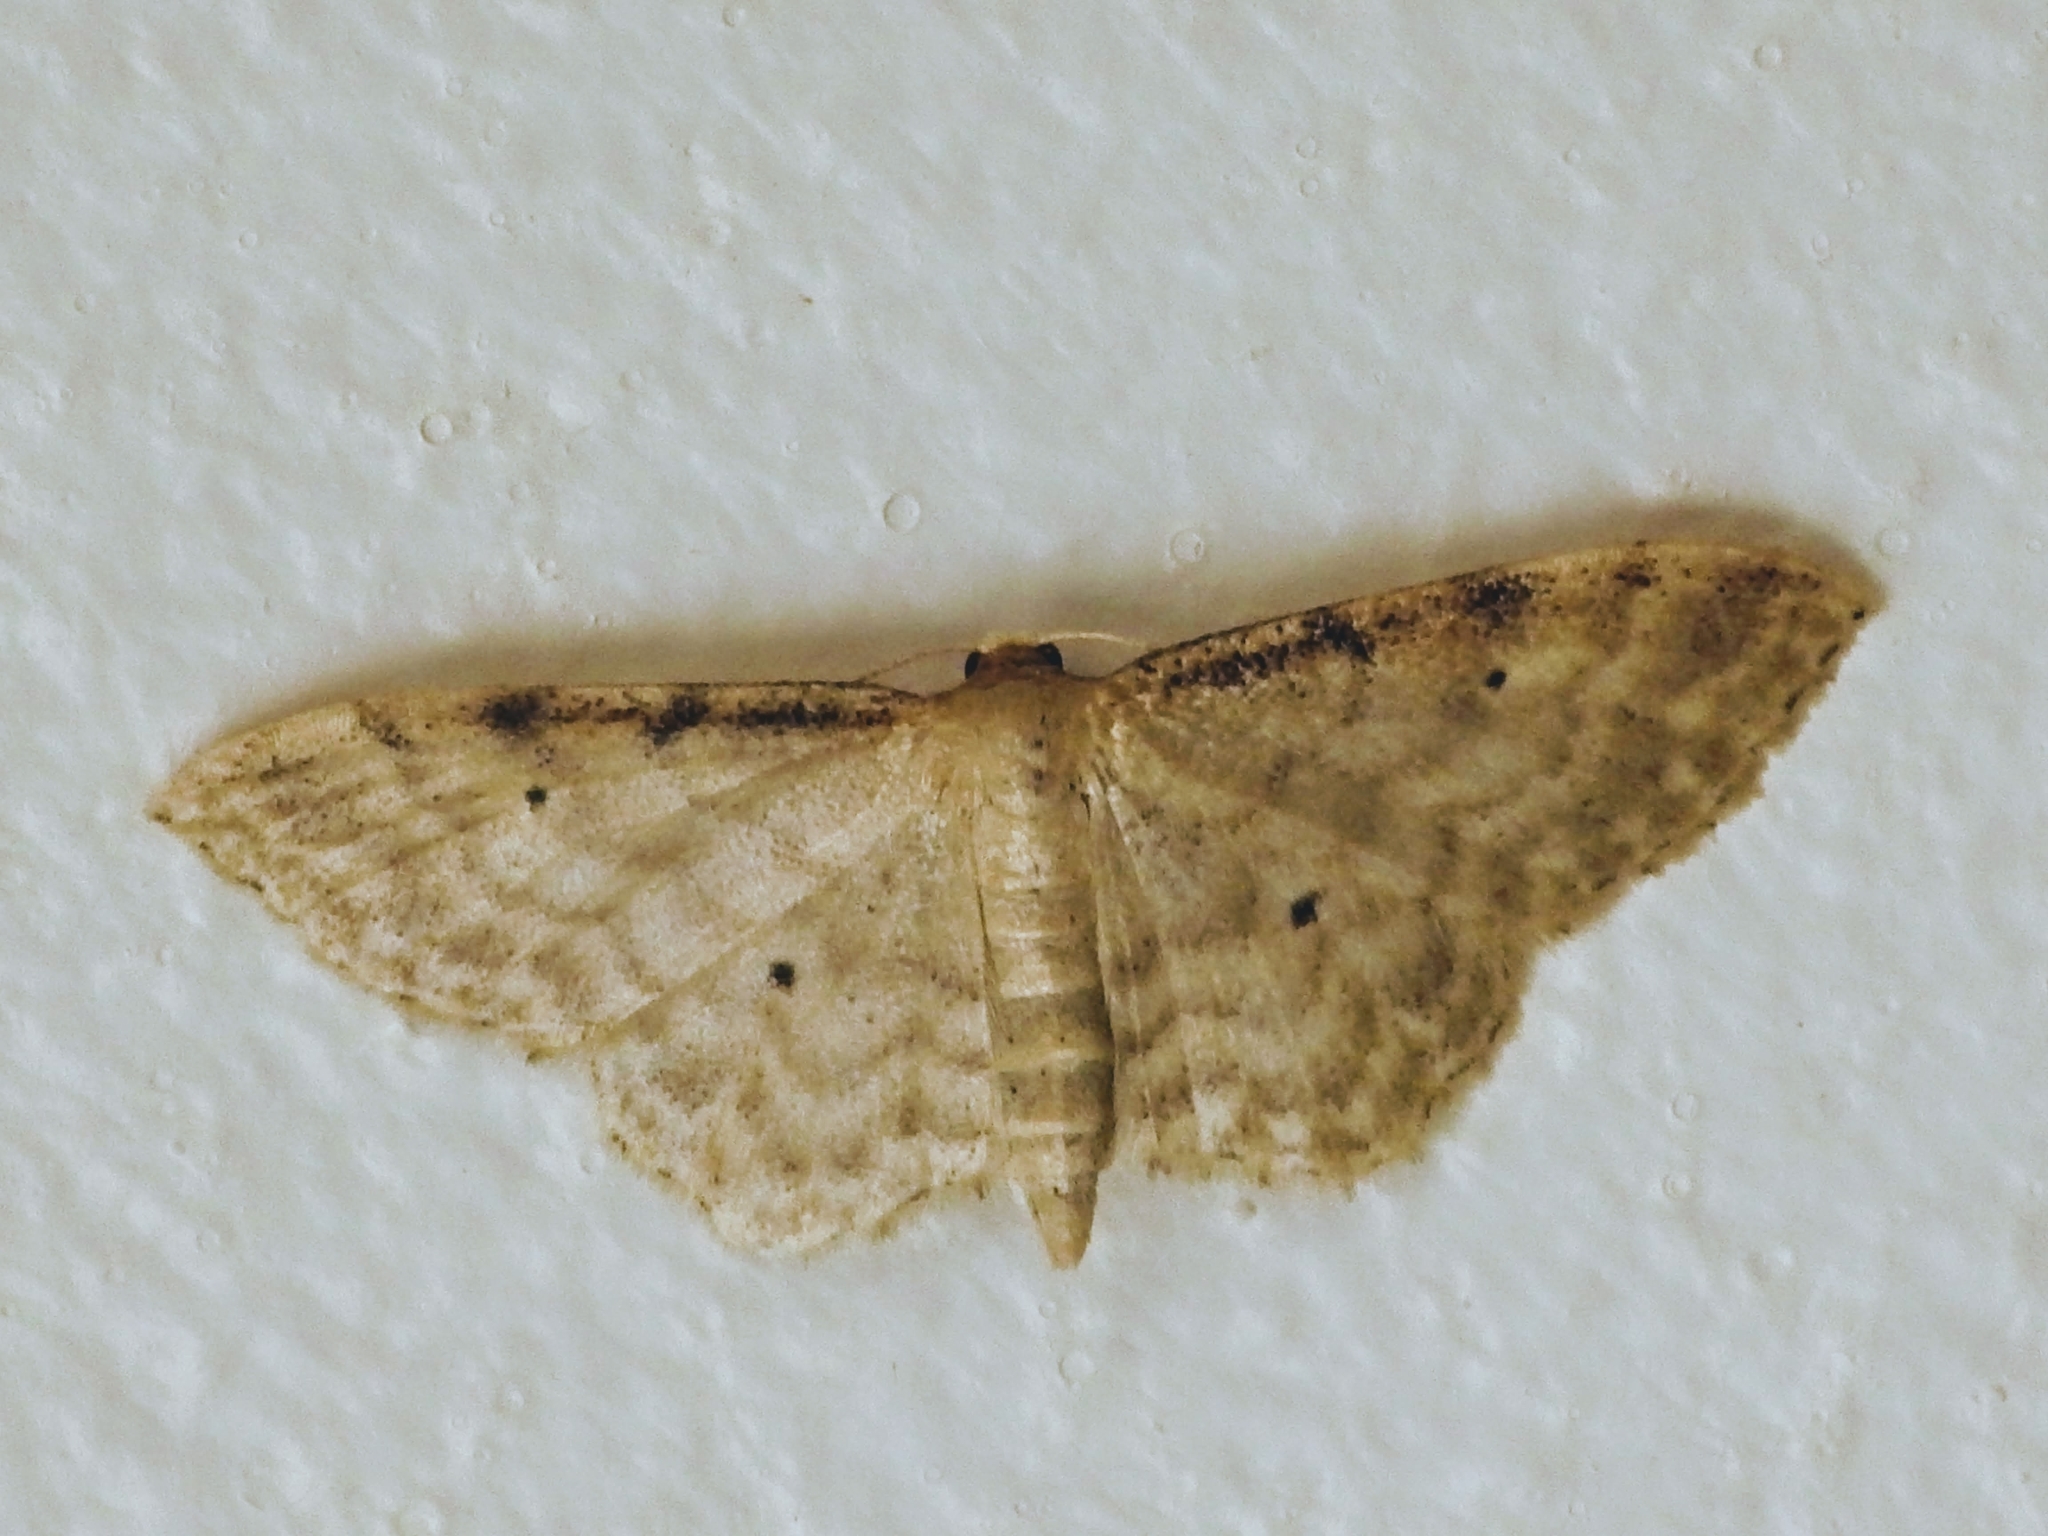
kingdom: Animalia
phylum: Arthropoda
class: Insecta
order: Lepidoptera
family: Geometridae
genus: Idaea
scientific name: Idaea fuscovenosa
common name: Dwarf cream wave
